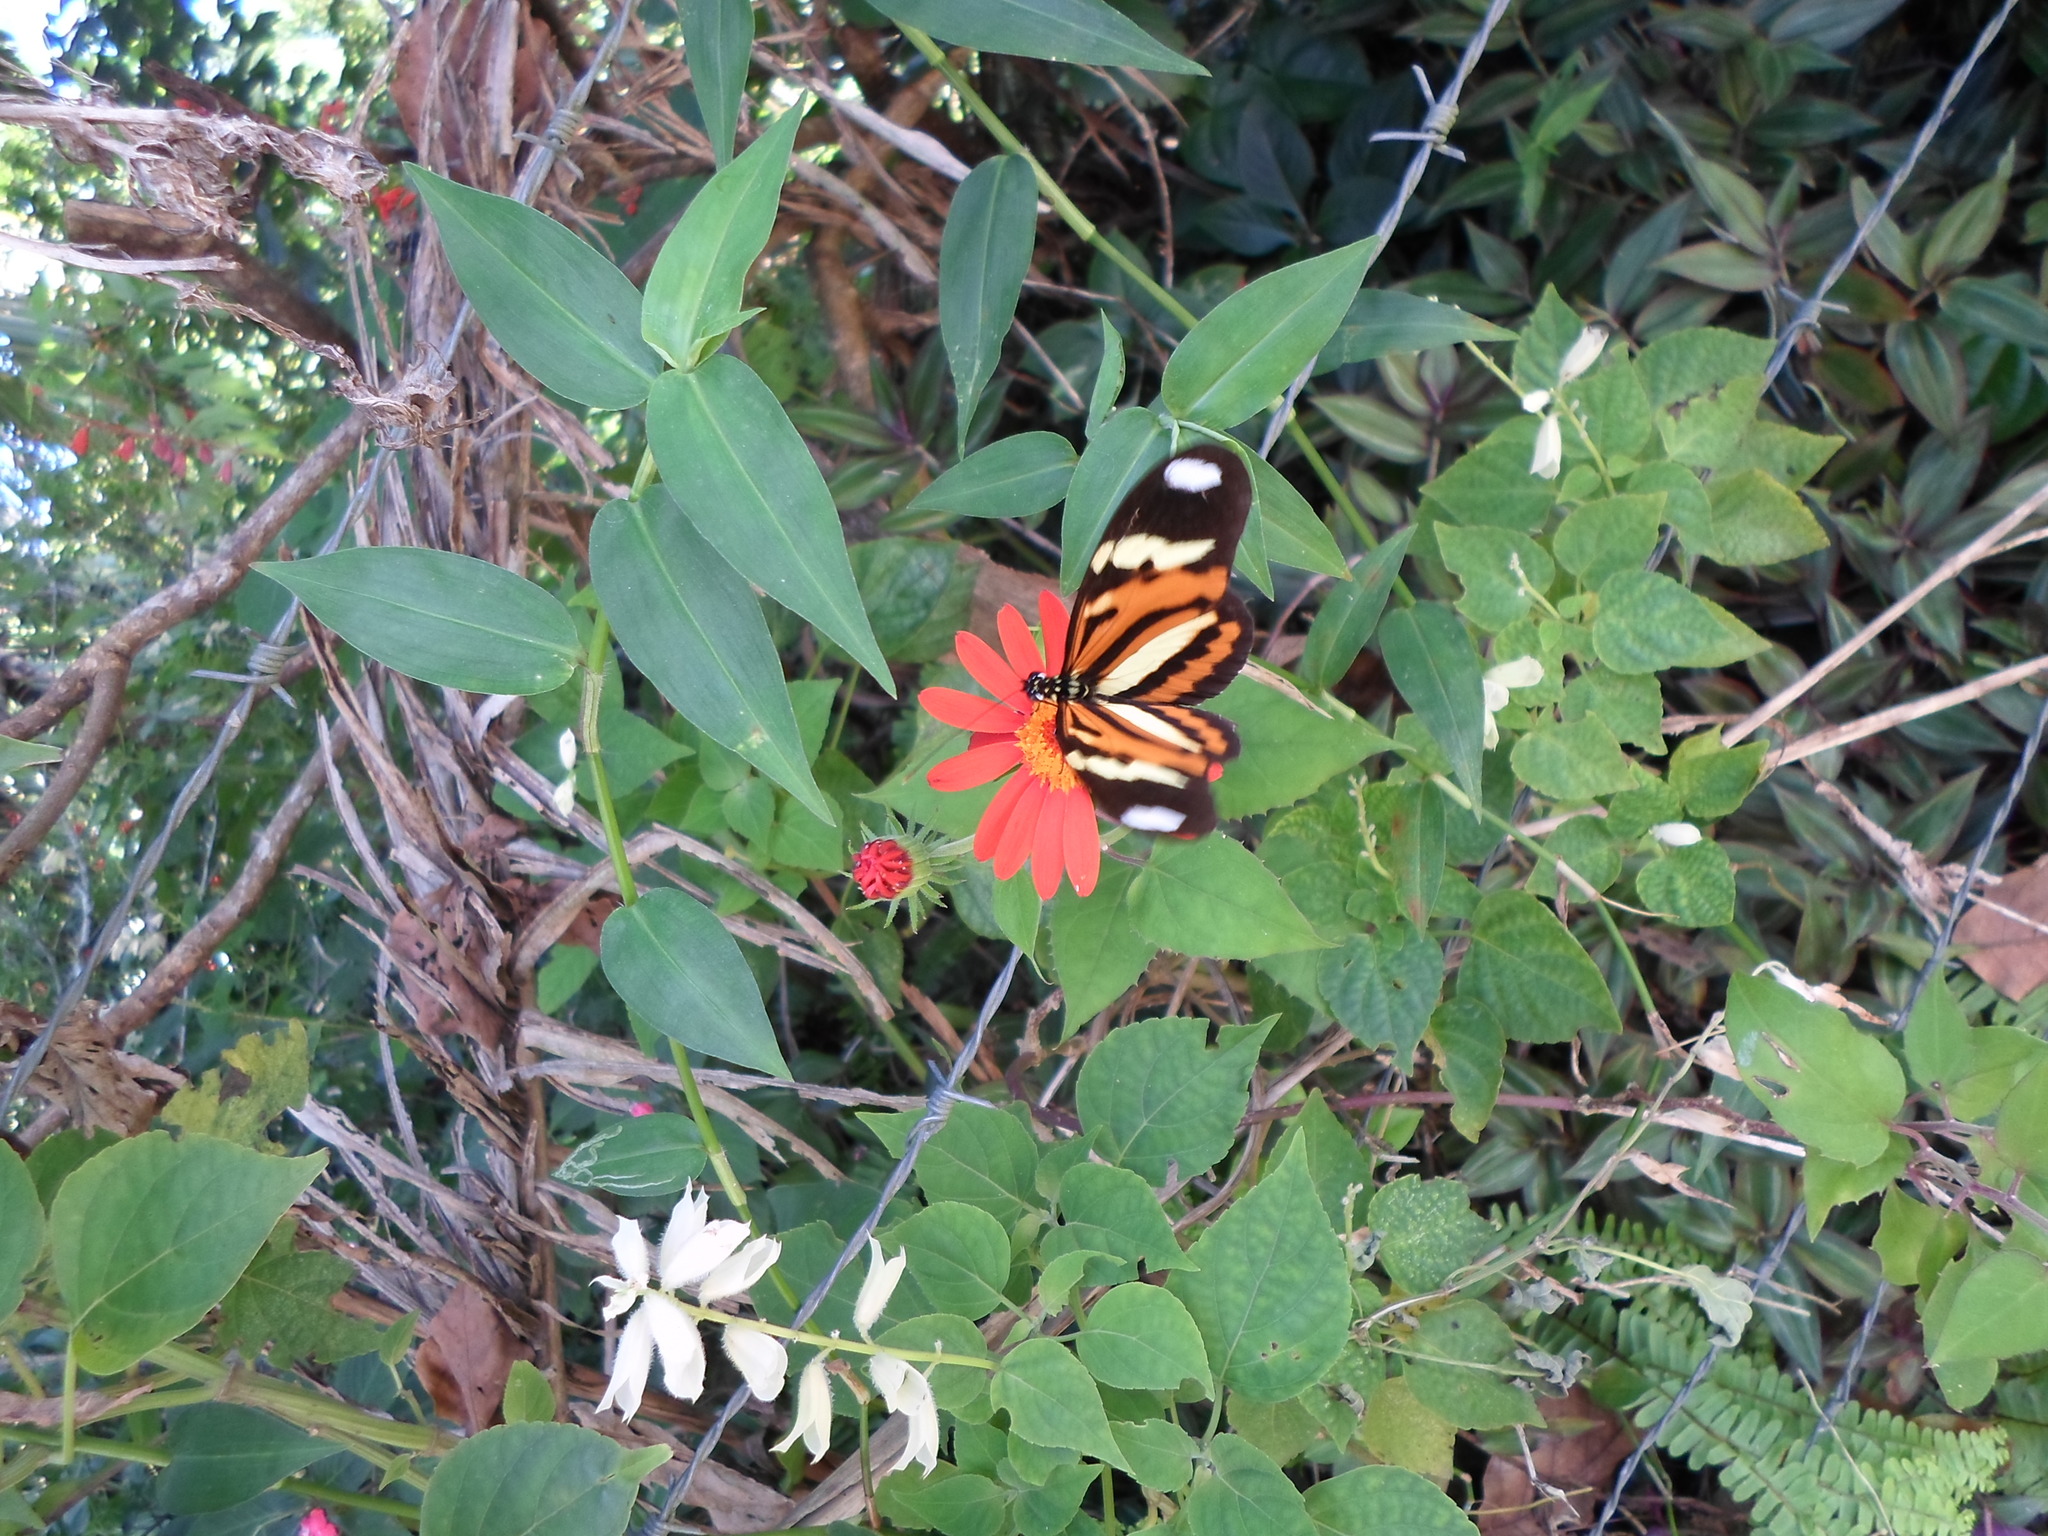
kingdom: Animalia
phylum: Arthropoda
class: Insecta
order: Lepidoptera
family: Nymphalidae
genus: Heliconius
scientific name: Heliconius ethilla
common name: Ethilia longwing
